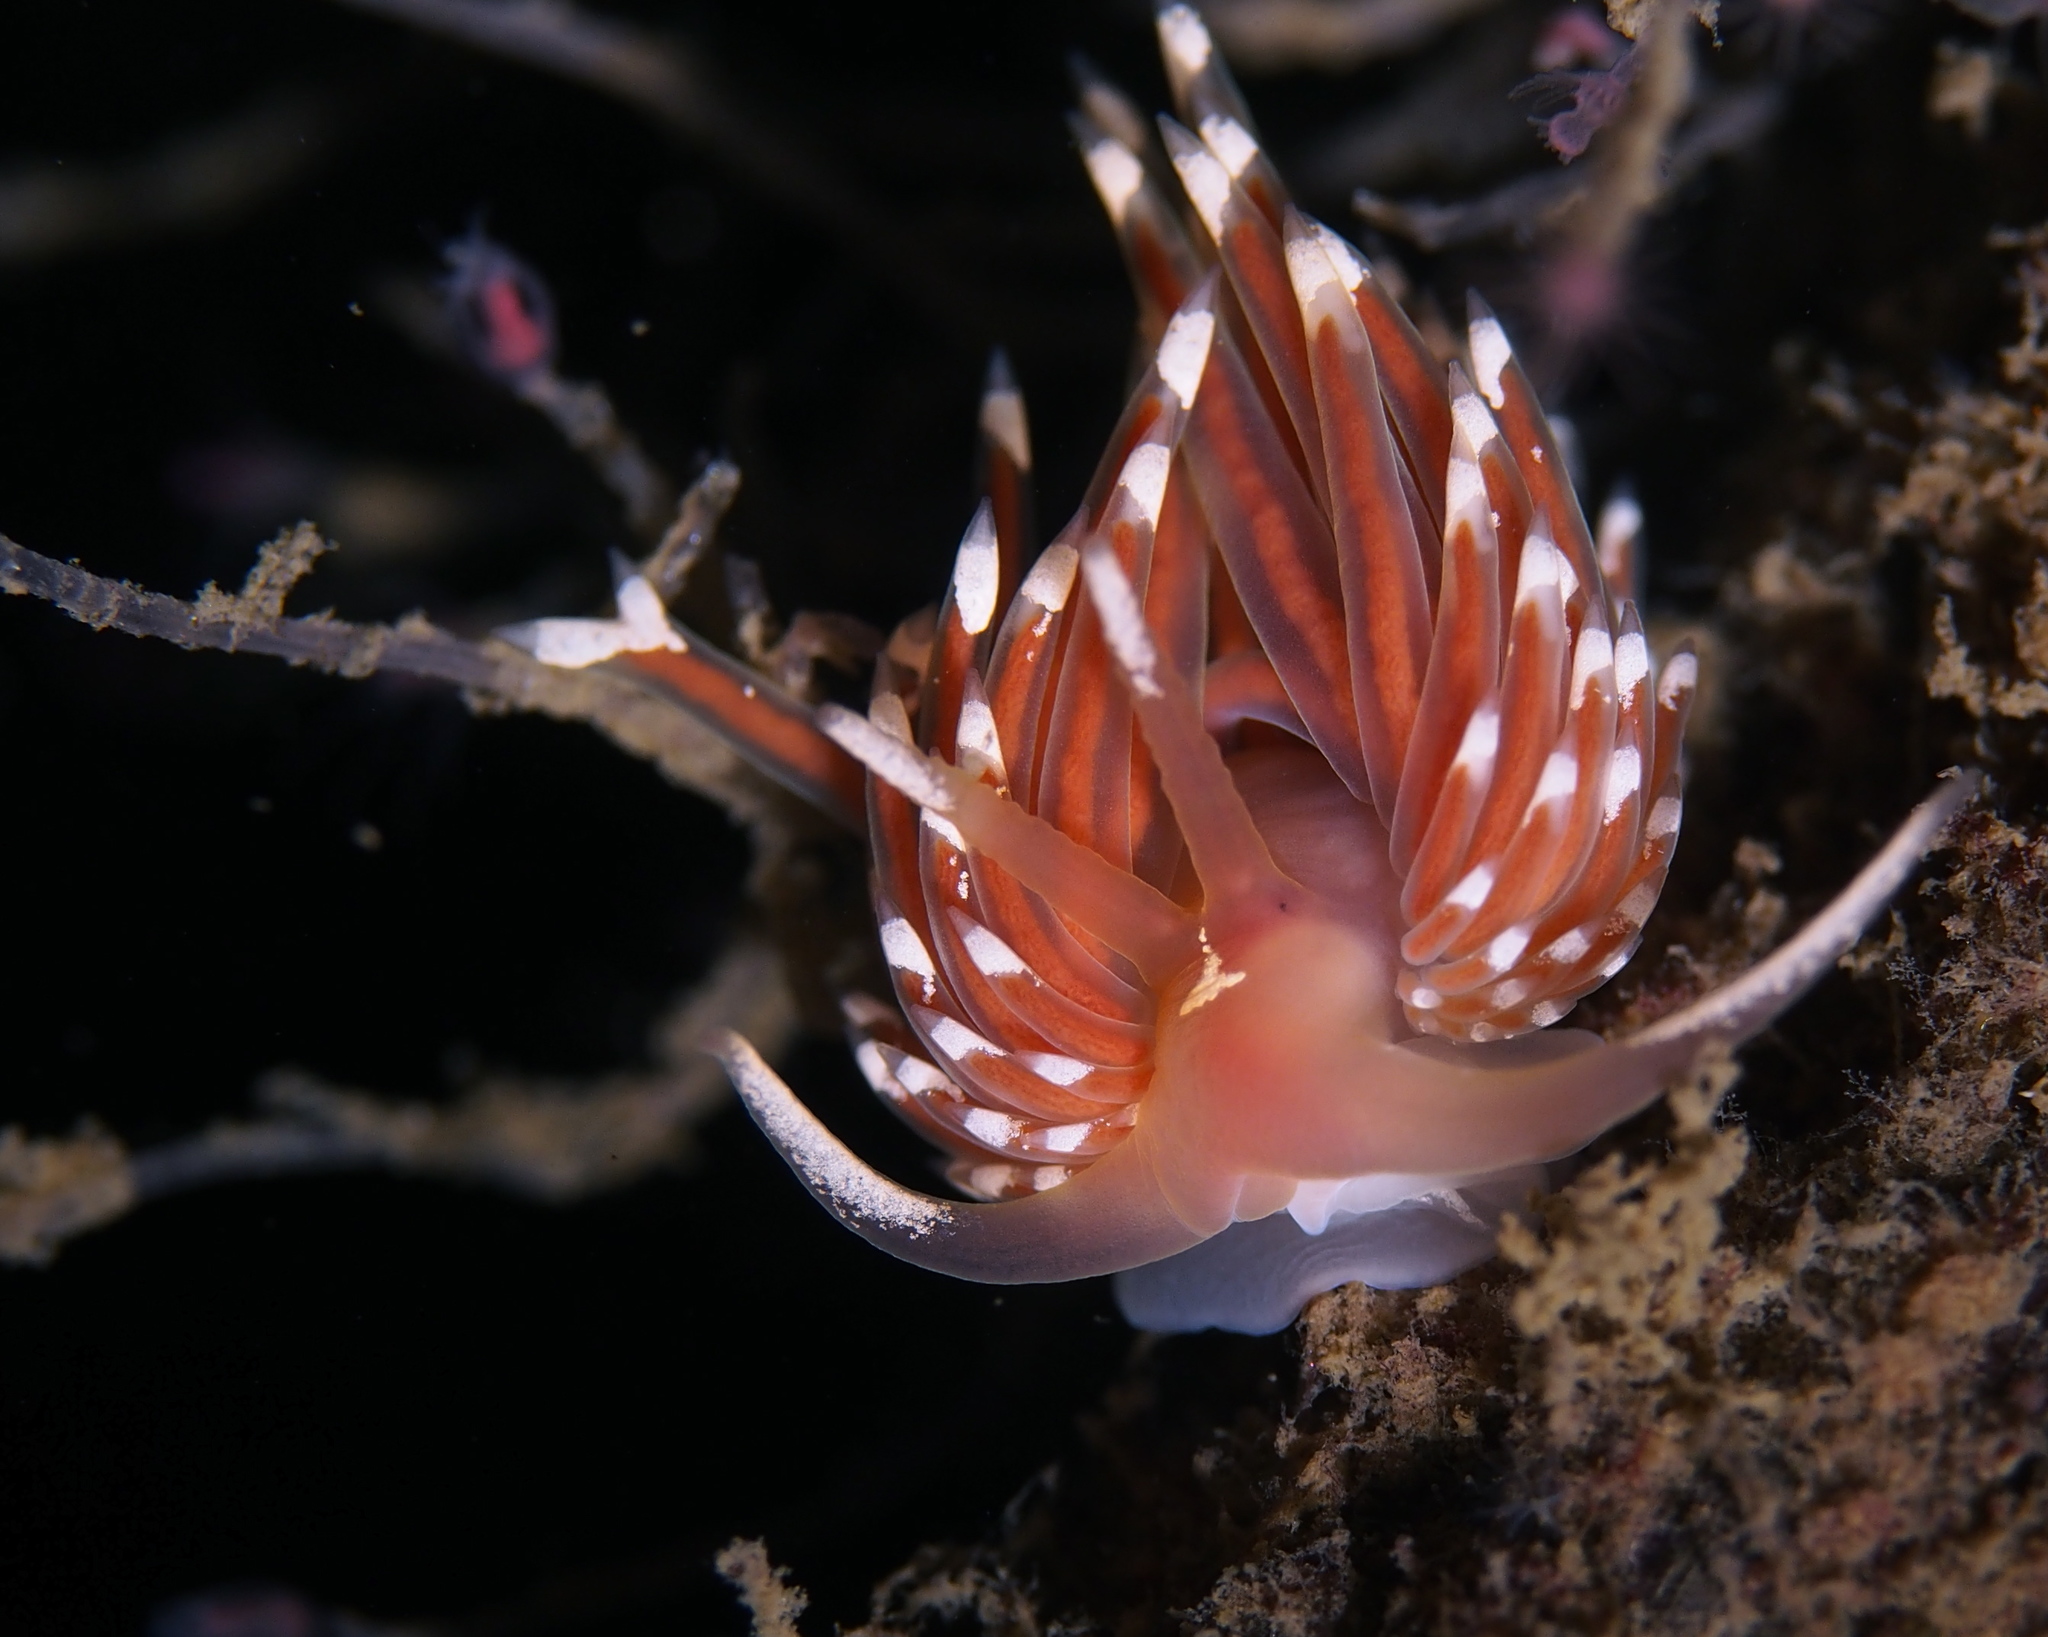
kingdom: Animalia
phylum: Mollusca
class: Gastropoda
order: Nudibranchia
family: Facelinidae
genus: Facelina
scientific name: Facelina bostoniensis
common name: Boston facelina
